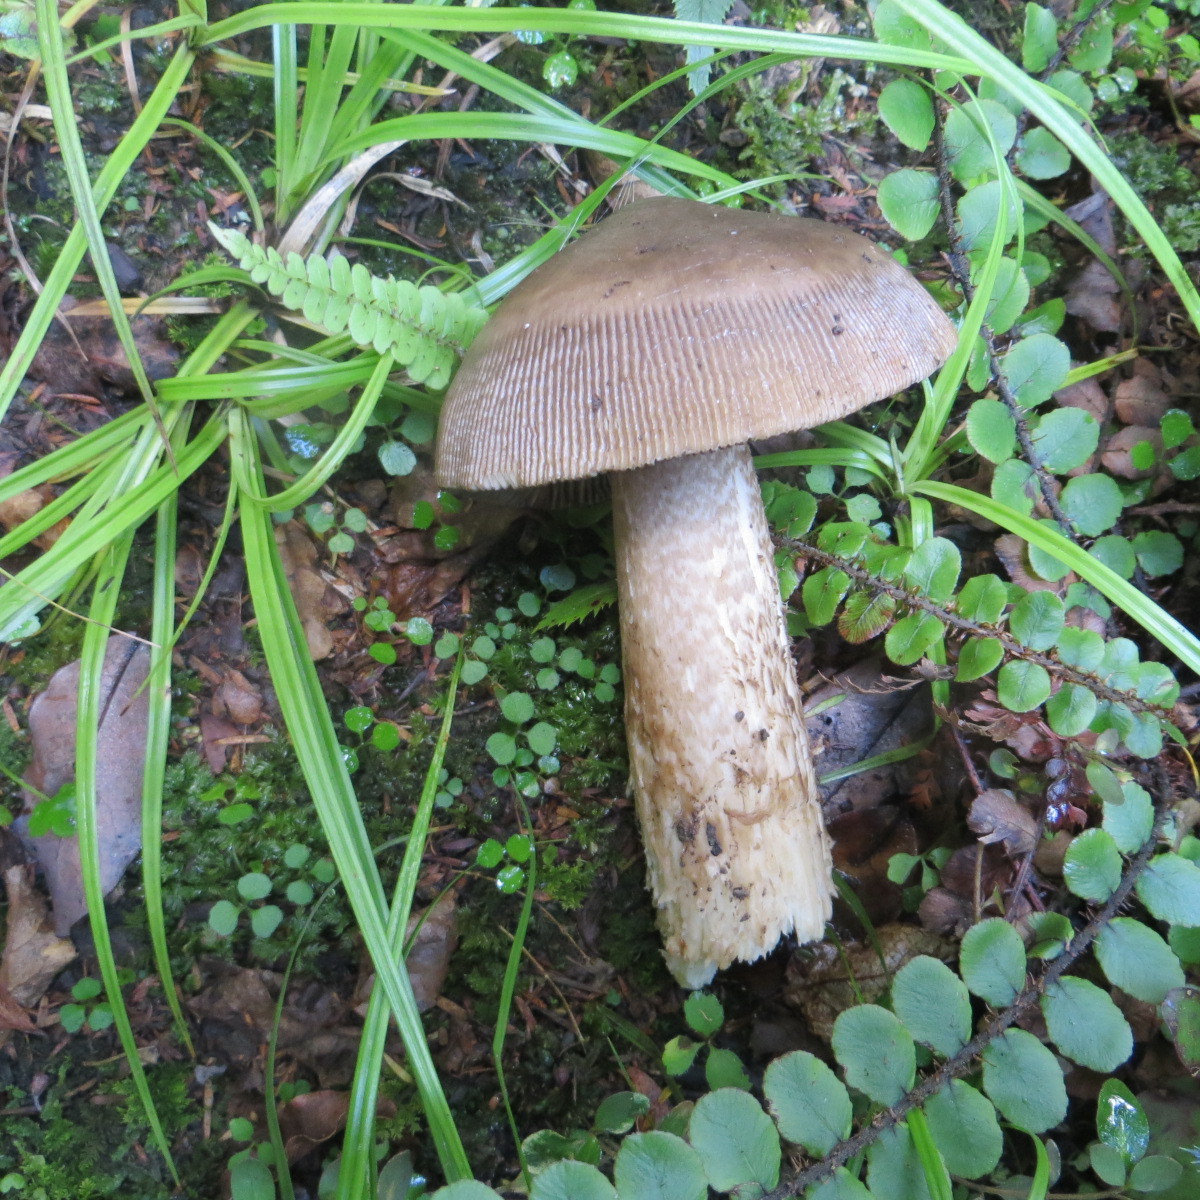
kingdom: Fungi
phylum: Basidiomycota
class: Agaricomycetes
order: Agaricales
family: Amanitaceae
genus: Amanita
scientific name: Amanita pekeoides
